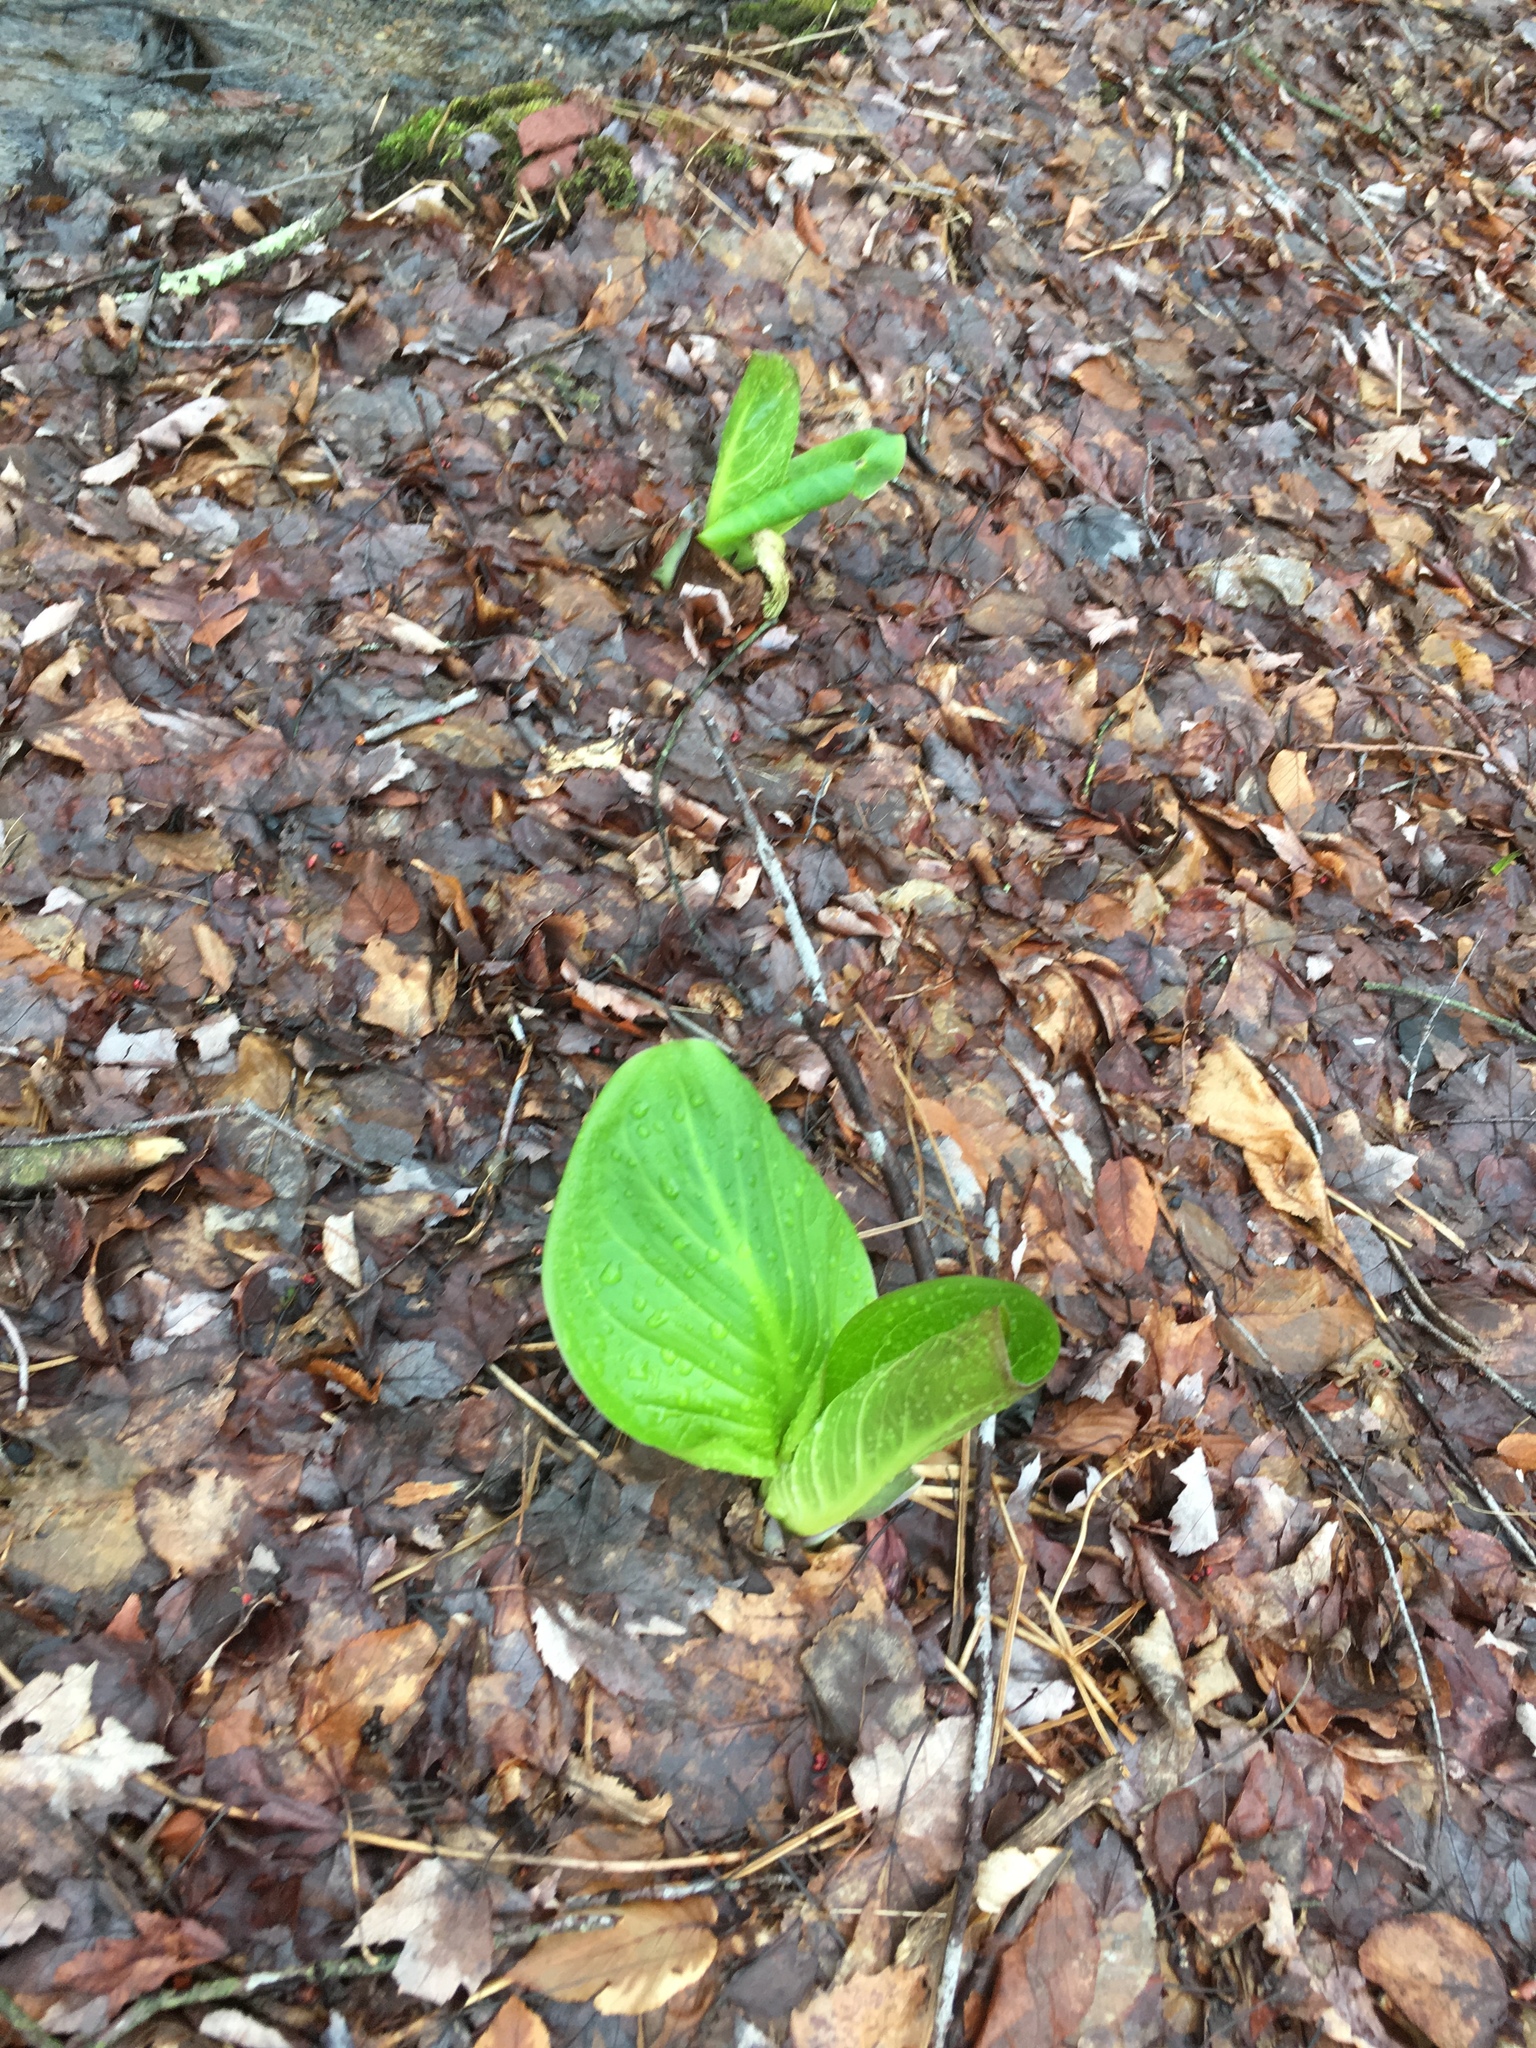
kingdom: Plantae
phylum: Tracheophyta
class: Liliopsida
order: Alismatales
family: Araceae
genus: Symplocarpus
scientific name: Symplocarpus foetidus
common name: Eastern skunk cabbage
